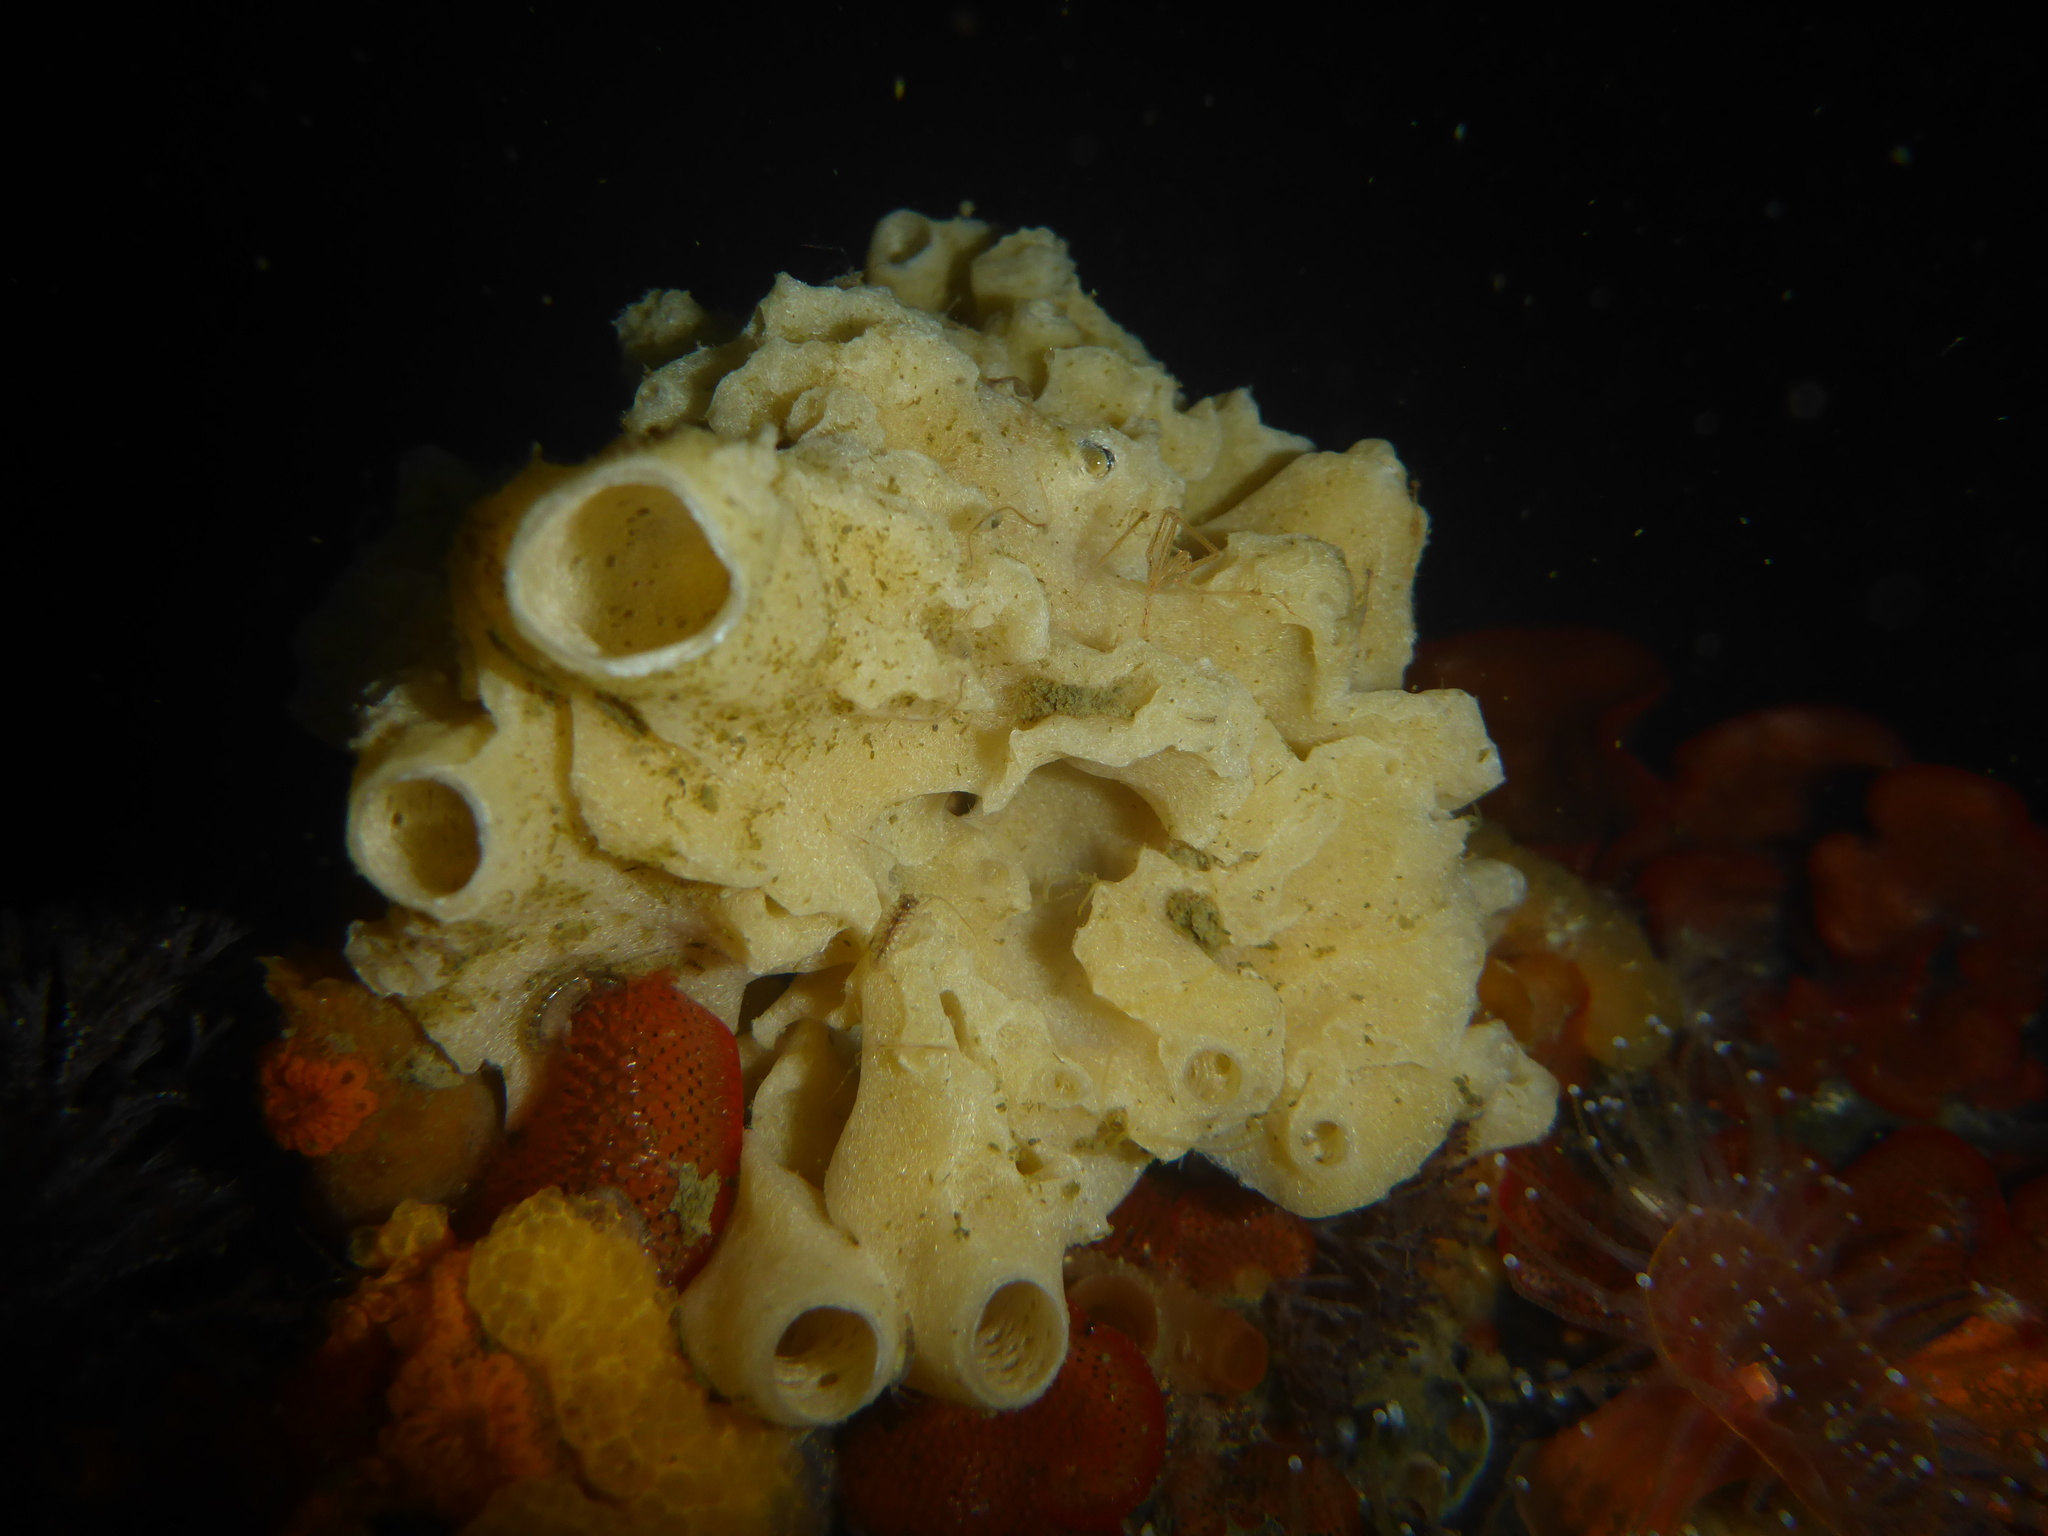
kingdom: Animalia
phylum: Porifera
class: Calcarea
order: Leucosolenida
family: Grantiidae
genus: Leucandra
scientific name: Leucandra losangelensis
